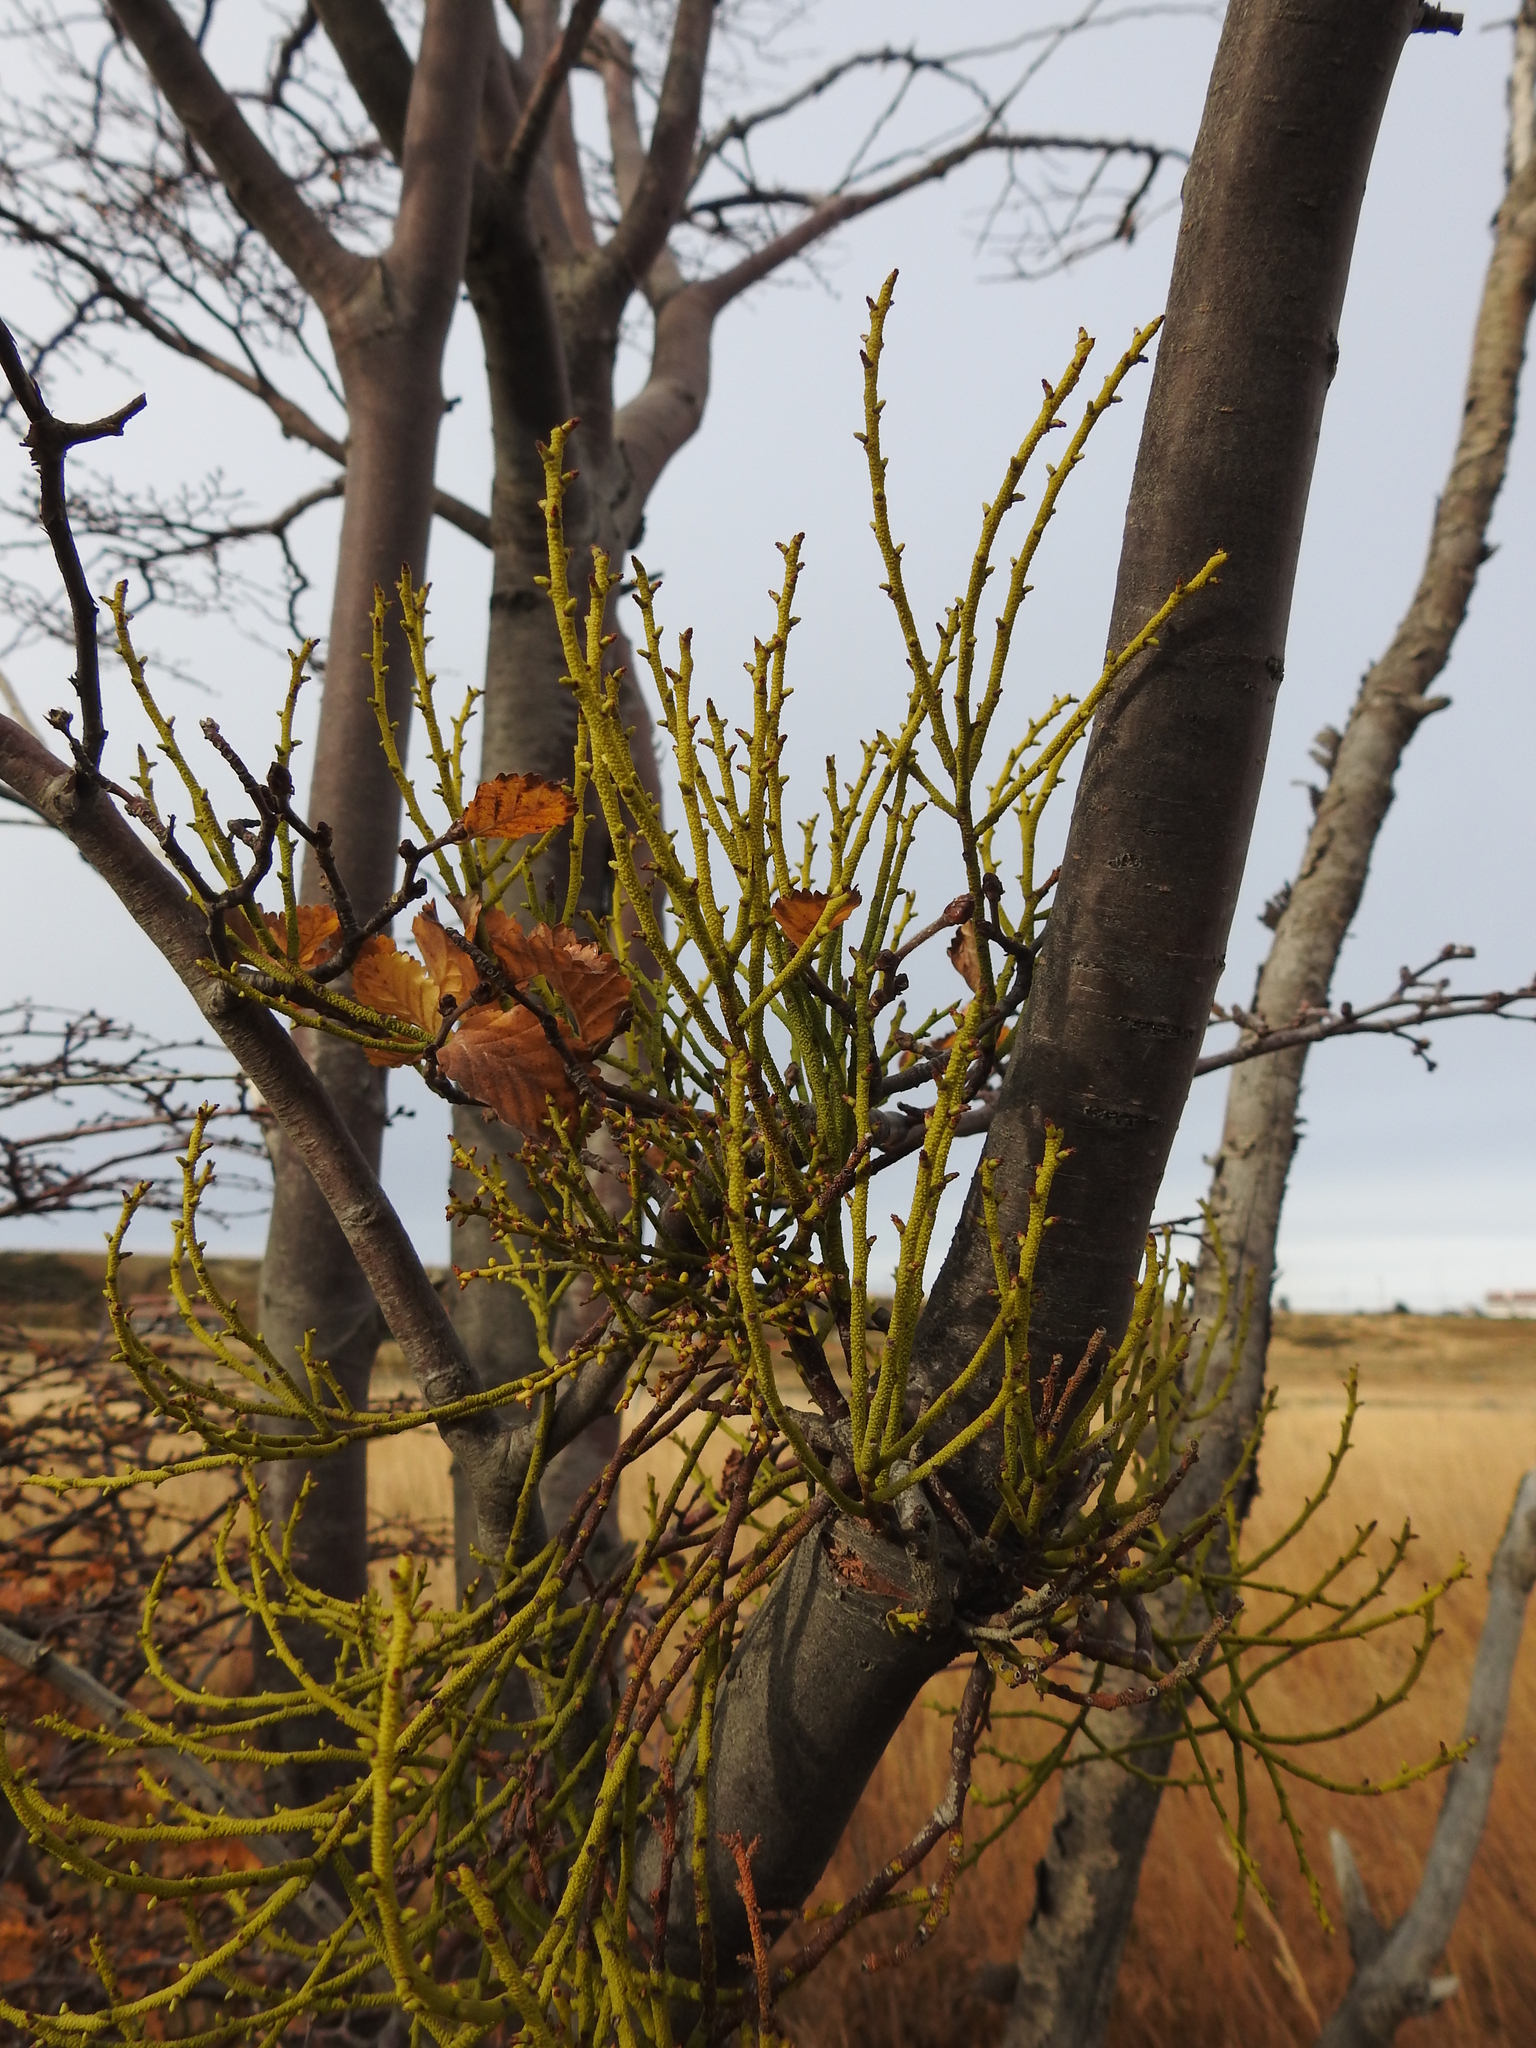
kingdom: Plantae
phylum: Tracheophyta
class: Magnoliopsida
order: Santalales
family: Misodendraceae
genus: Misodendrum
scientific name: Misodendrum punctulatum
